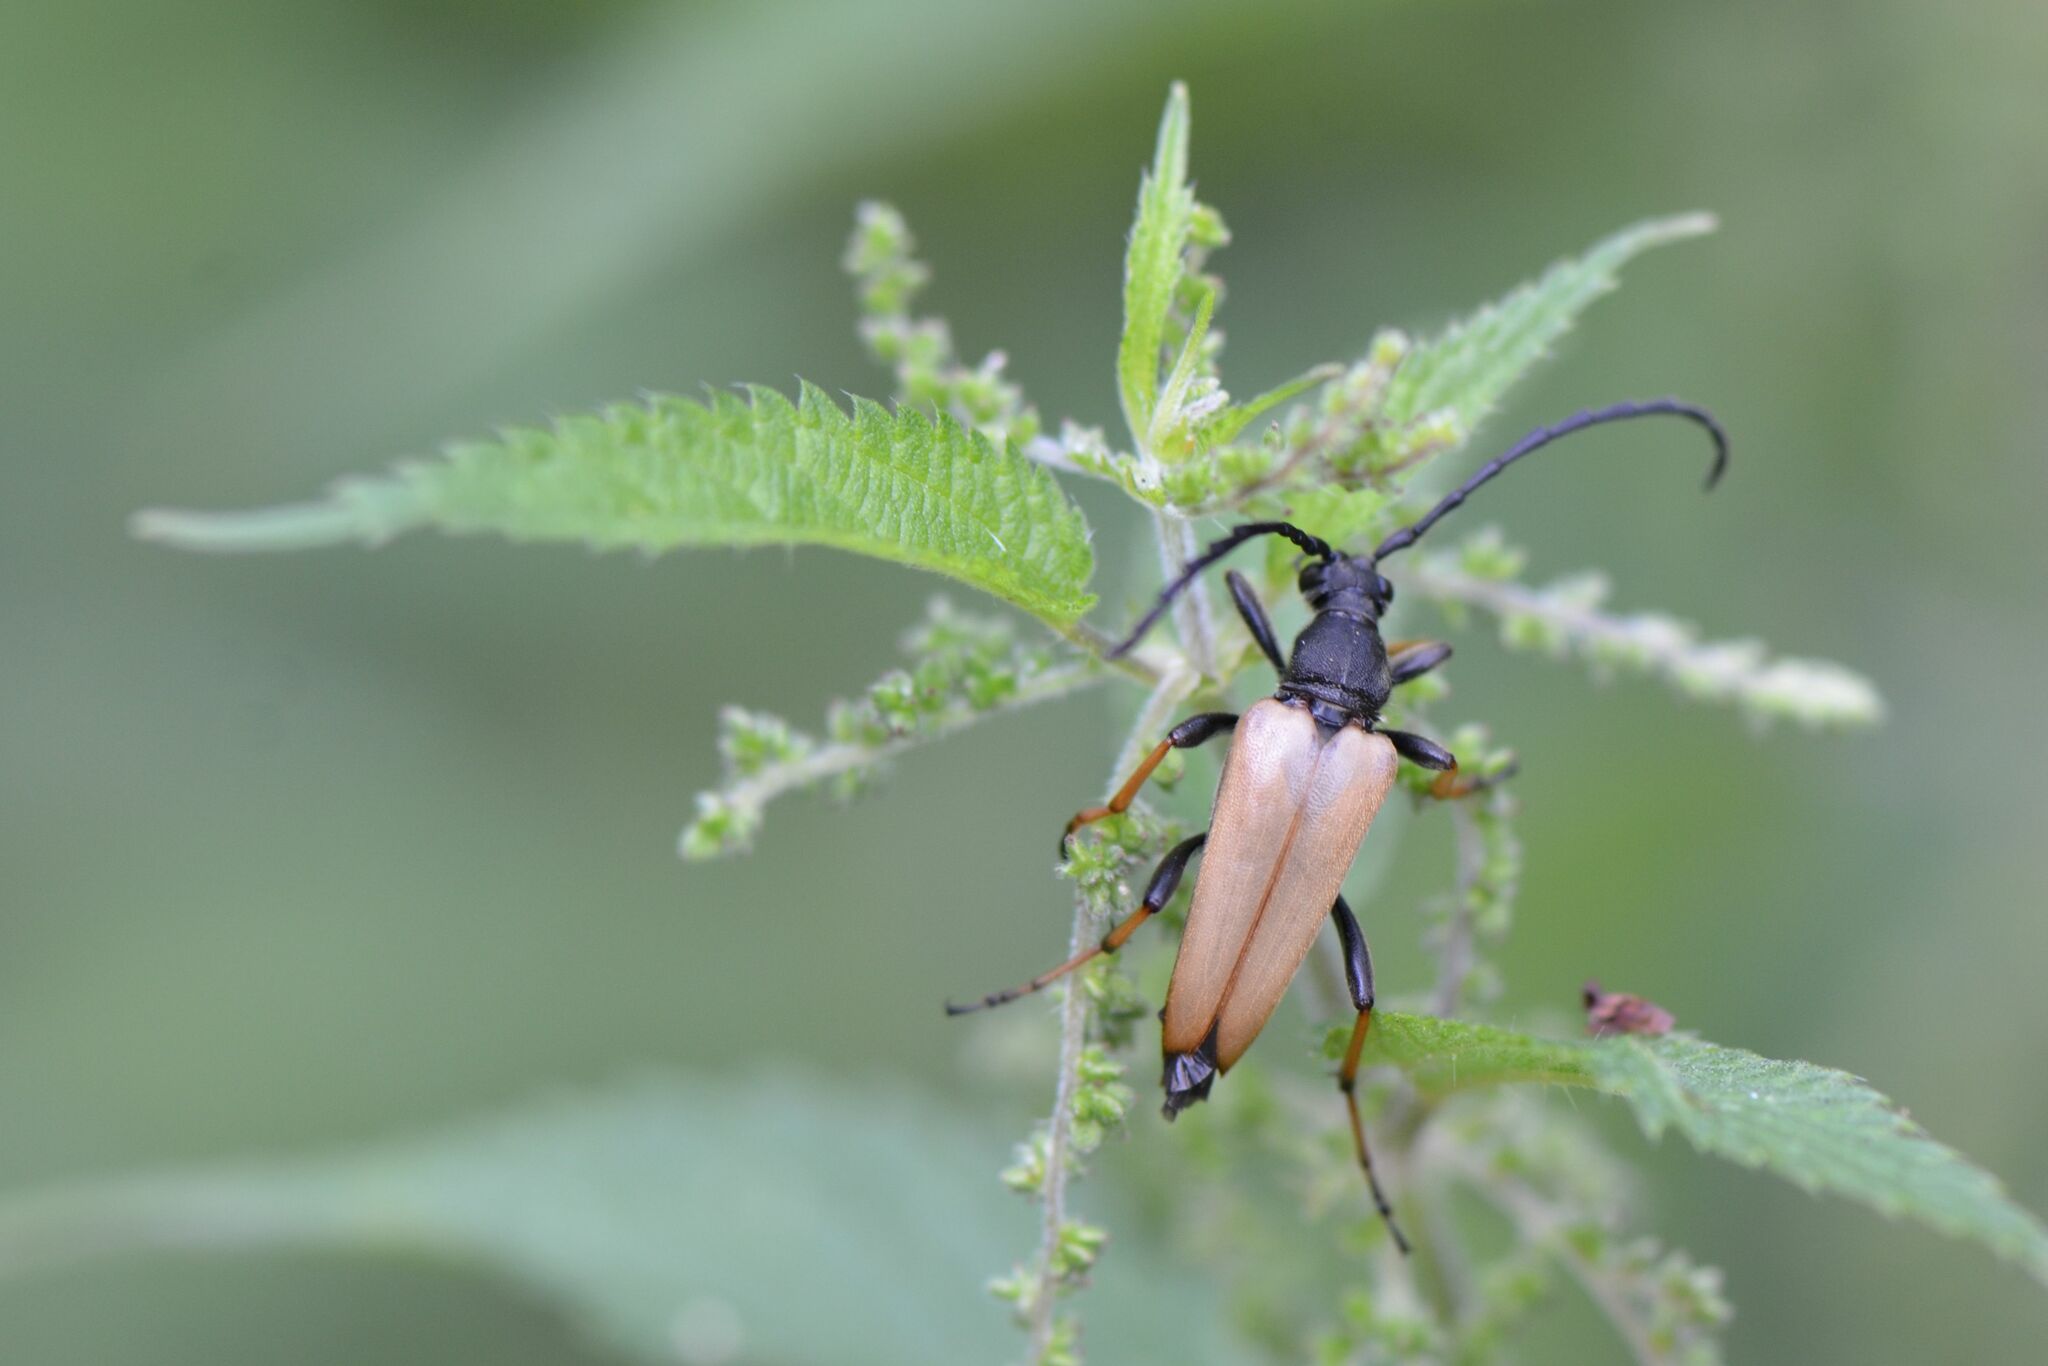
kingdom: Animalia
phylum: Arthropoda
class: Insecta
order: Coleoptera
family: Cerambycidae
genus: Stictoleptura
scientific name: Stictoleptura rubra
